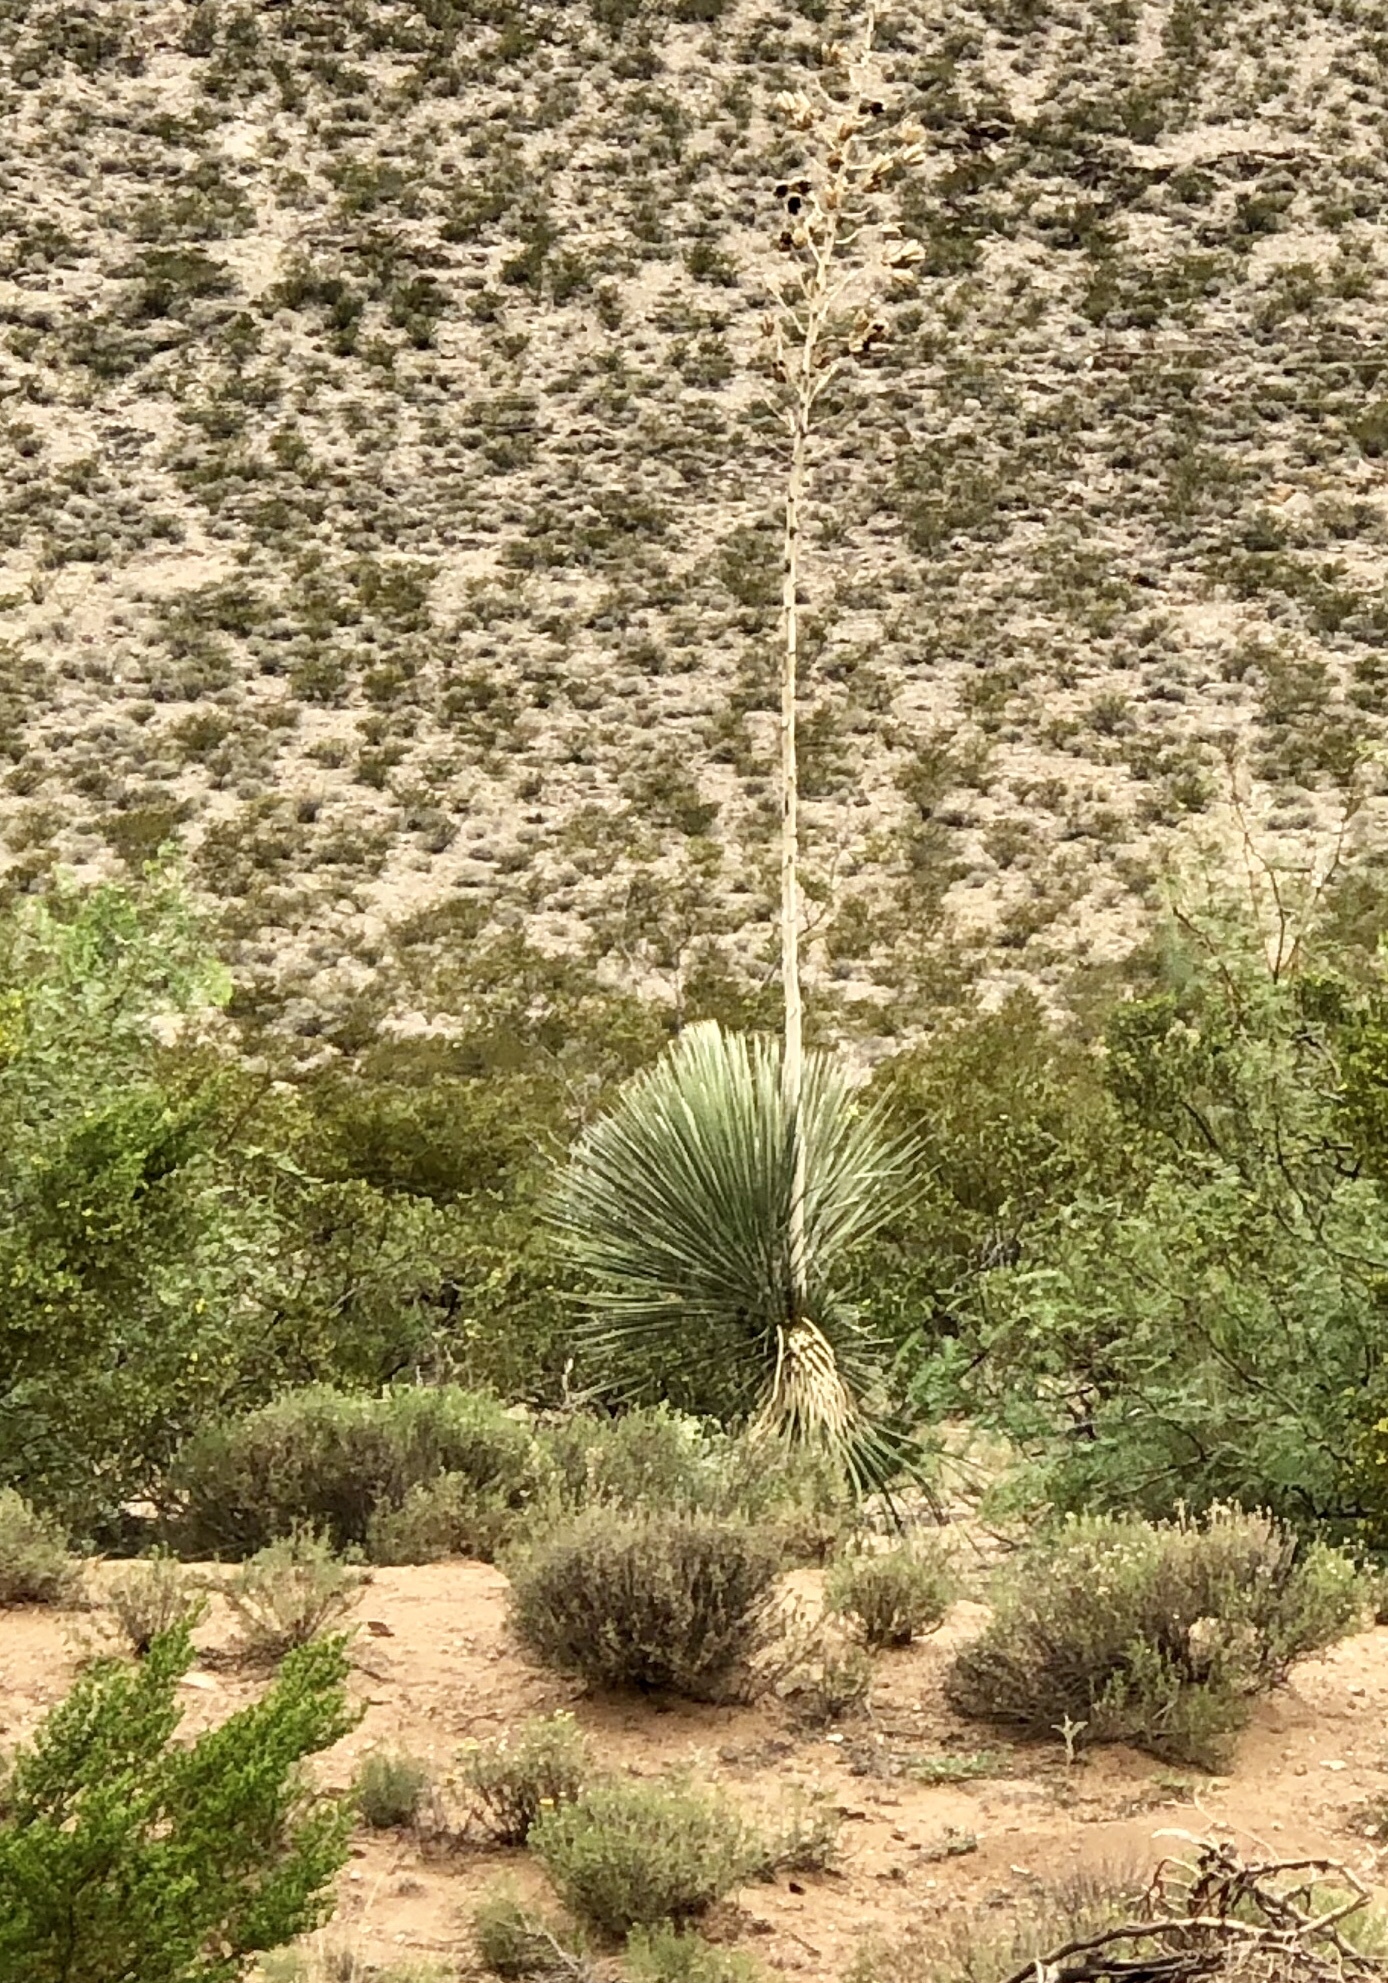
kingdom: Plantae
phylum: Tracheophyta
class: Liliopsida
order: Asparagales
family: Asparagaceae
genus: Yucca
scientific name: Yucca elata
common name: Palmella
